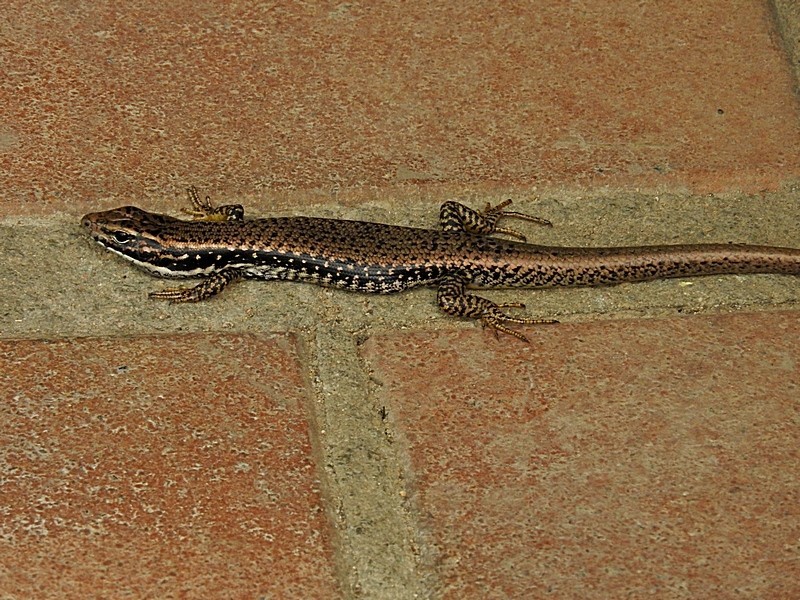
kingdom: Animalia
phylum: Chordata
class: Squamata
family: Scincidae
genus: Eulamprus
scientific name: Eulamprus heatwolei
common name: Warm-temperate water-skink
